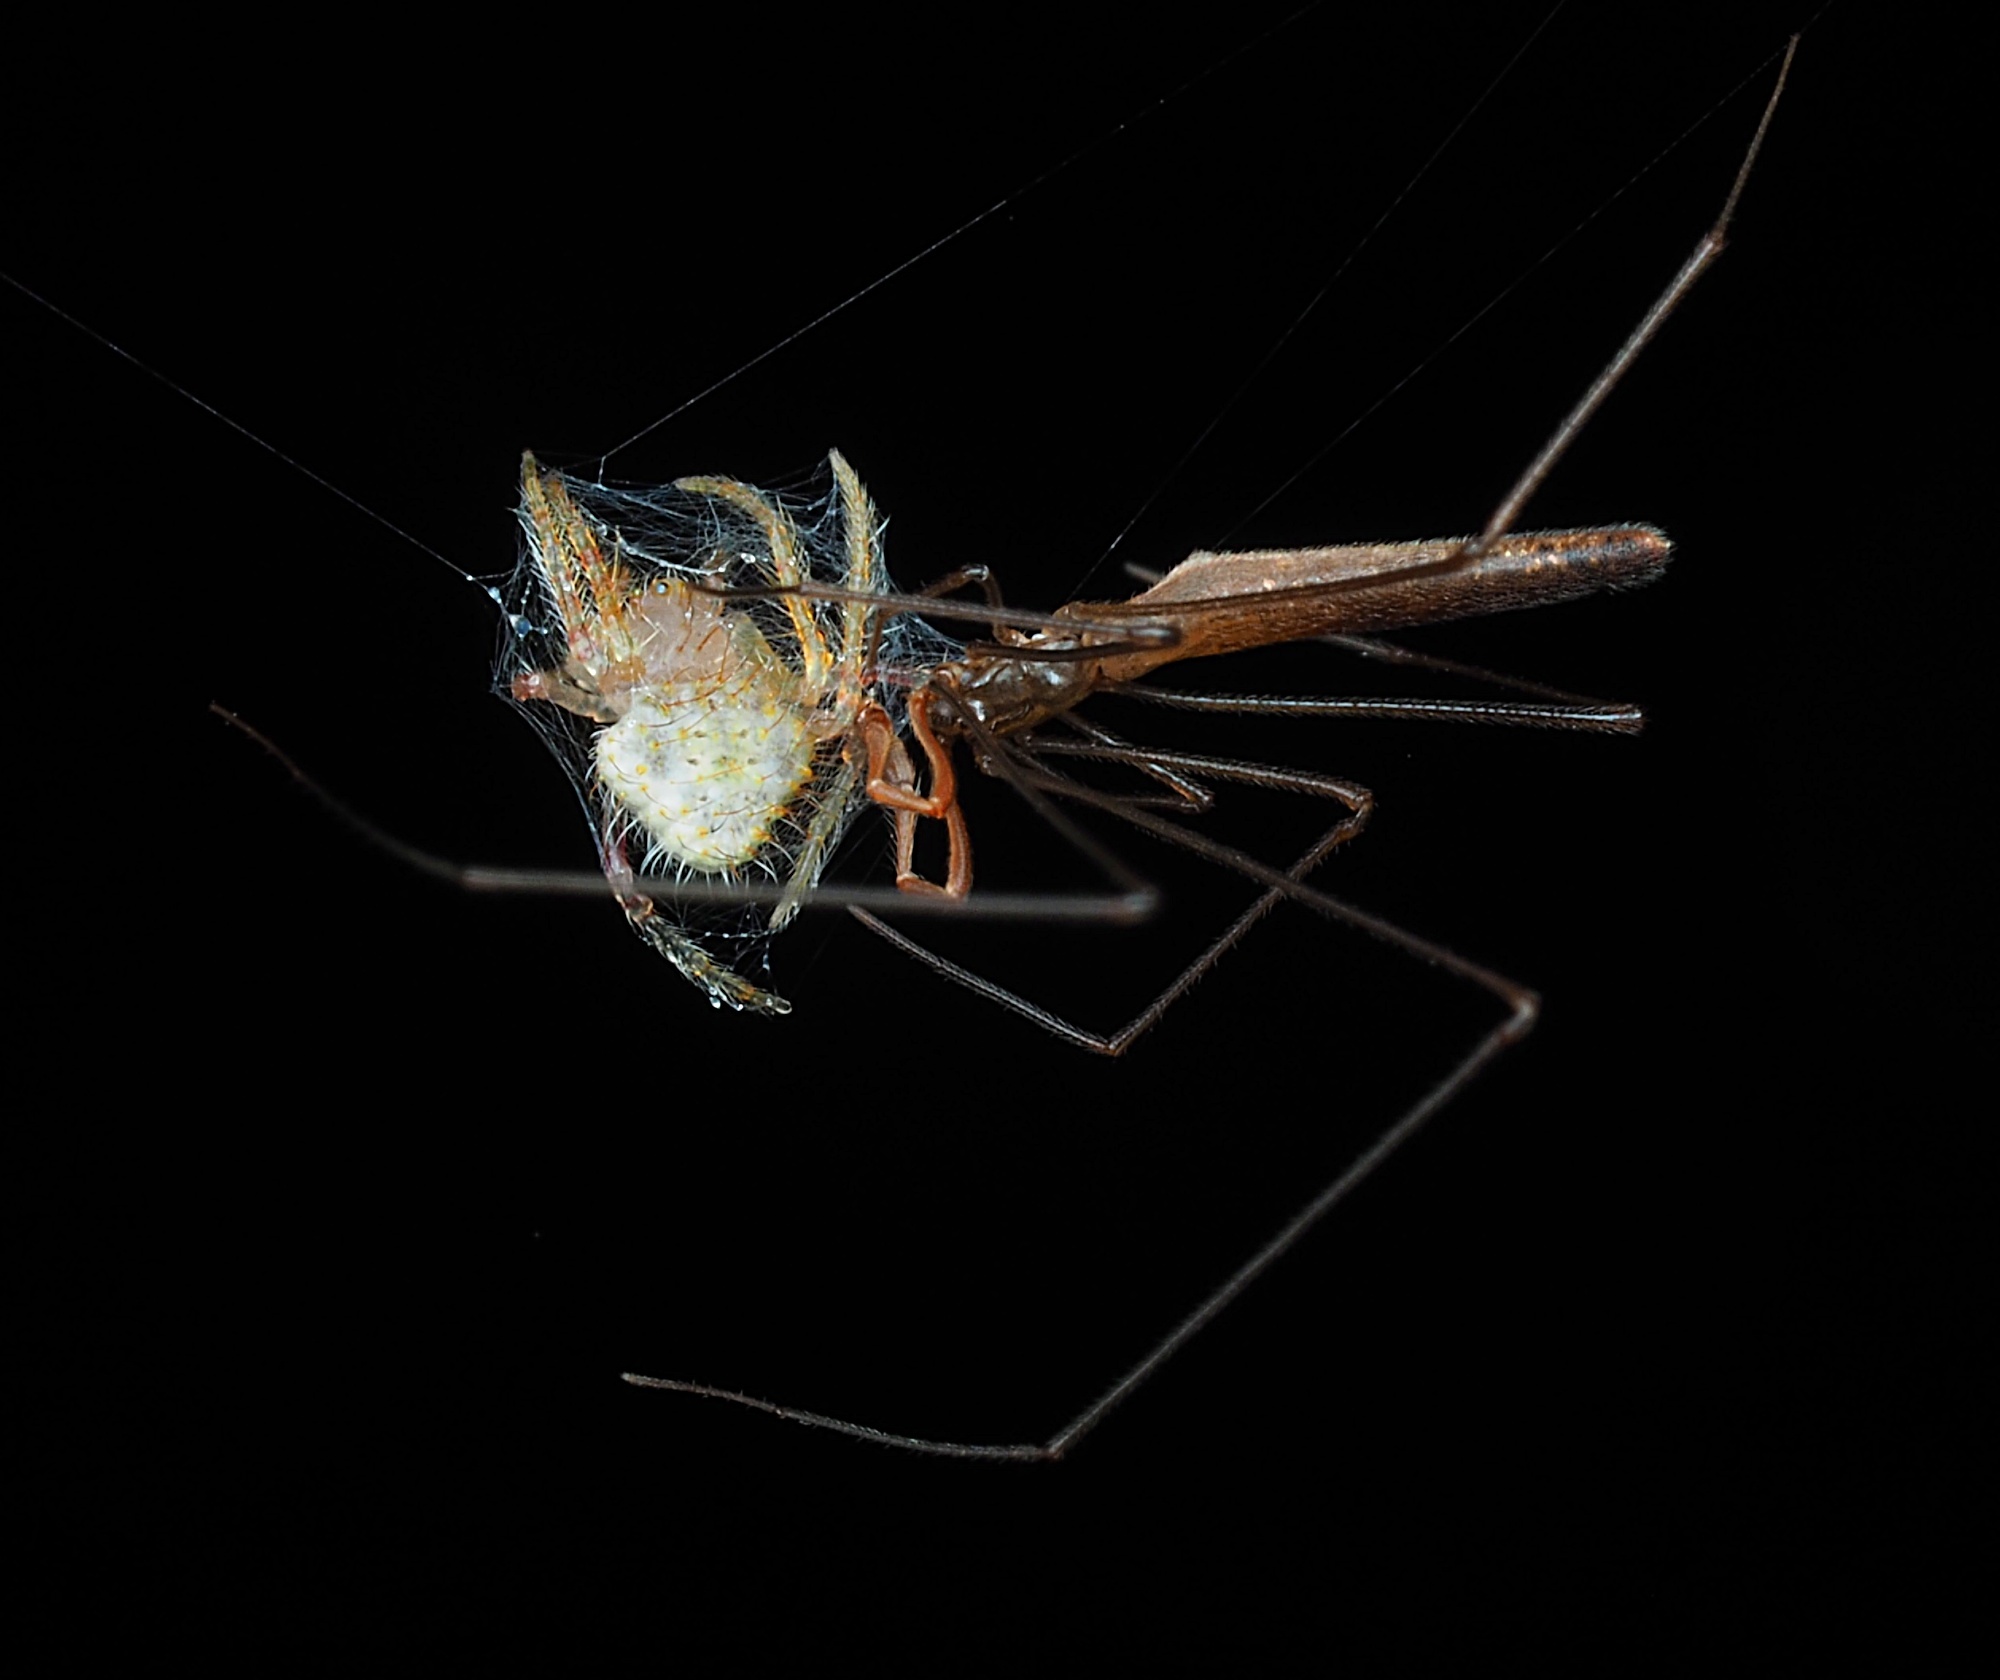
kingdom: Animalia
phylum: Arthropoda
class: Arachnida
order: Araneae
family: Araneidae
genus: Poecilopachys
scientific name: Poecilopachys australasia
